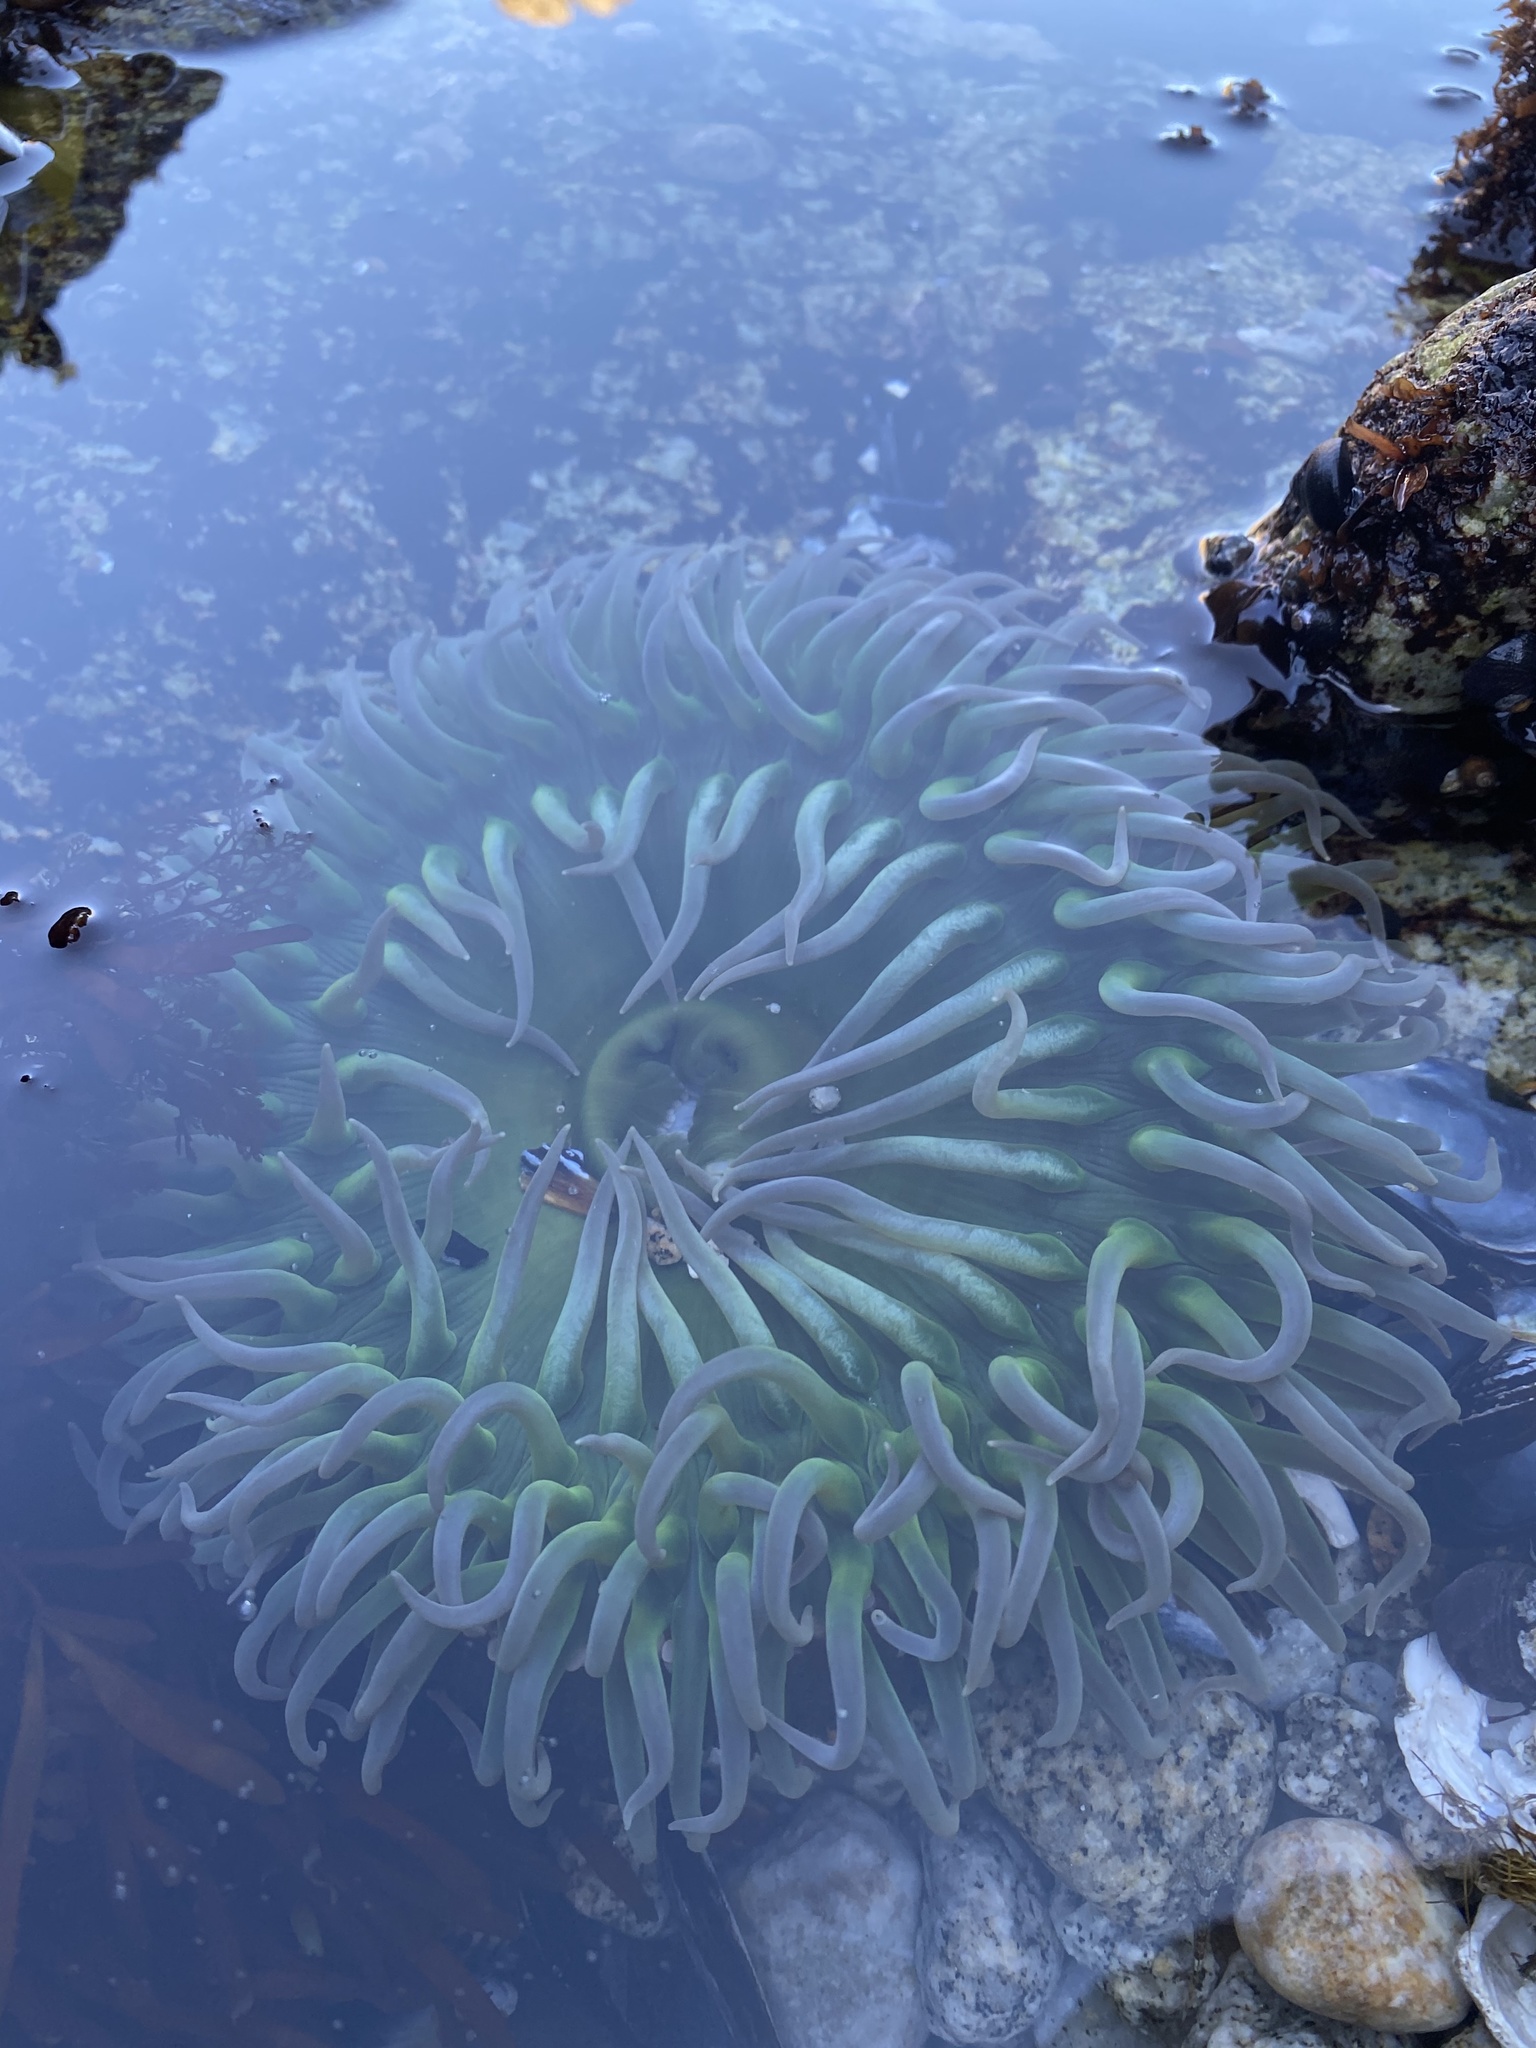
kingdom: Animalia
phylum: Cnidaria
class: Anthozoa
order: Actiniaria
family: Actiniidae
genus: Anthopleura
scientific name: Anthopleura xanthogrammica
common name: Giant green anemone
